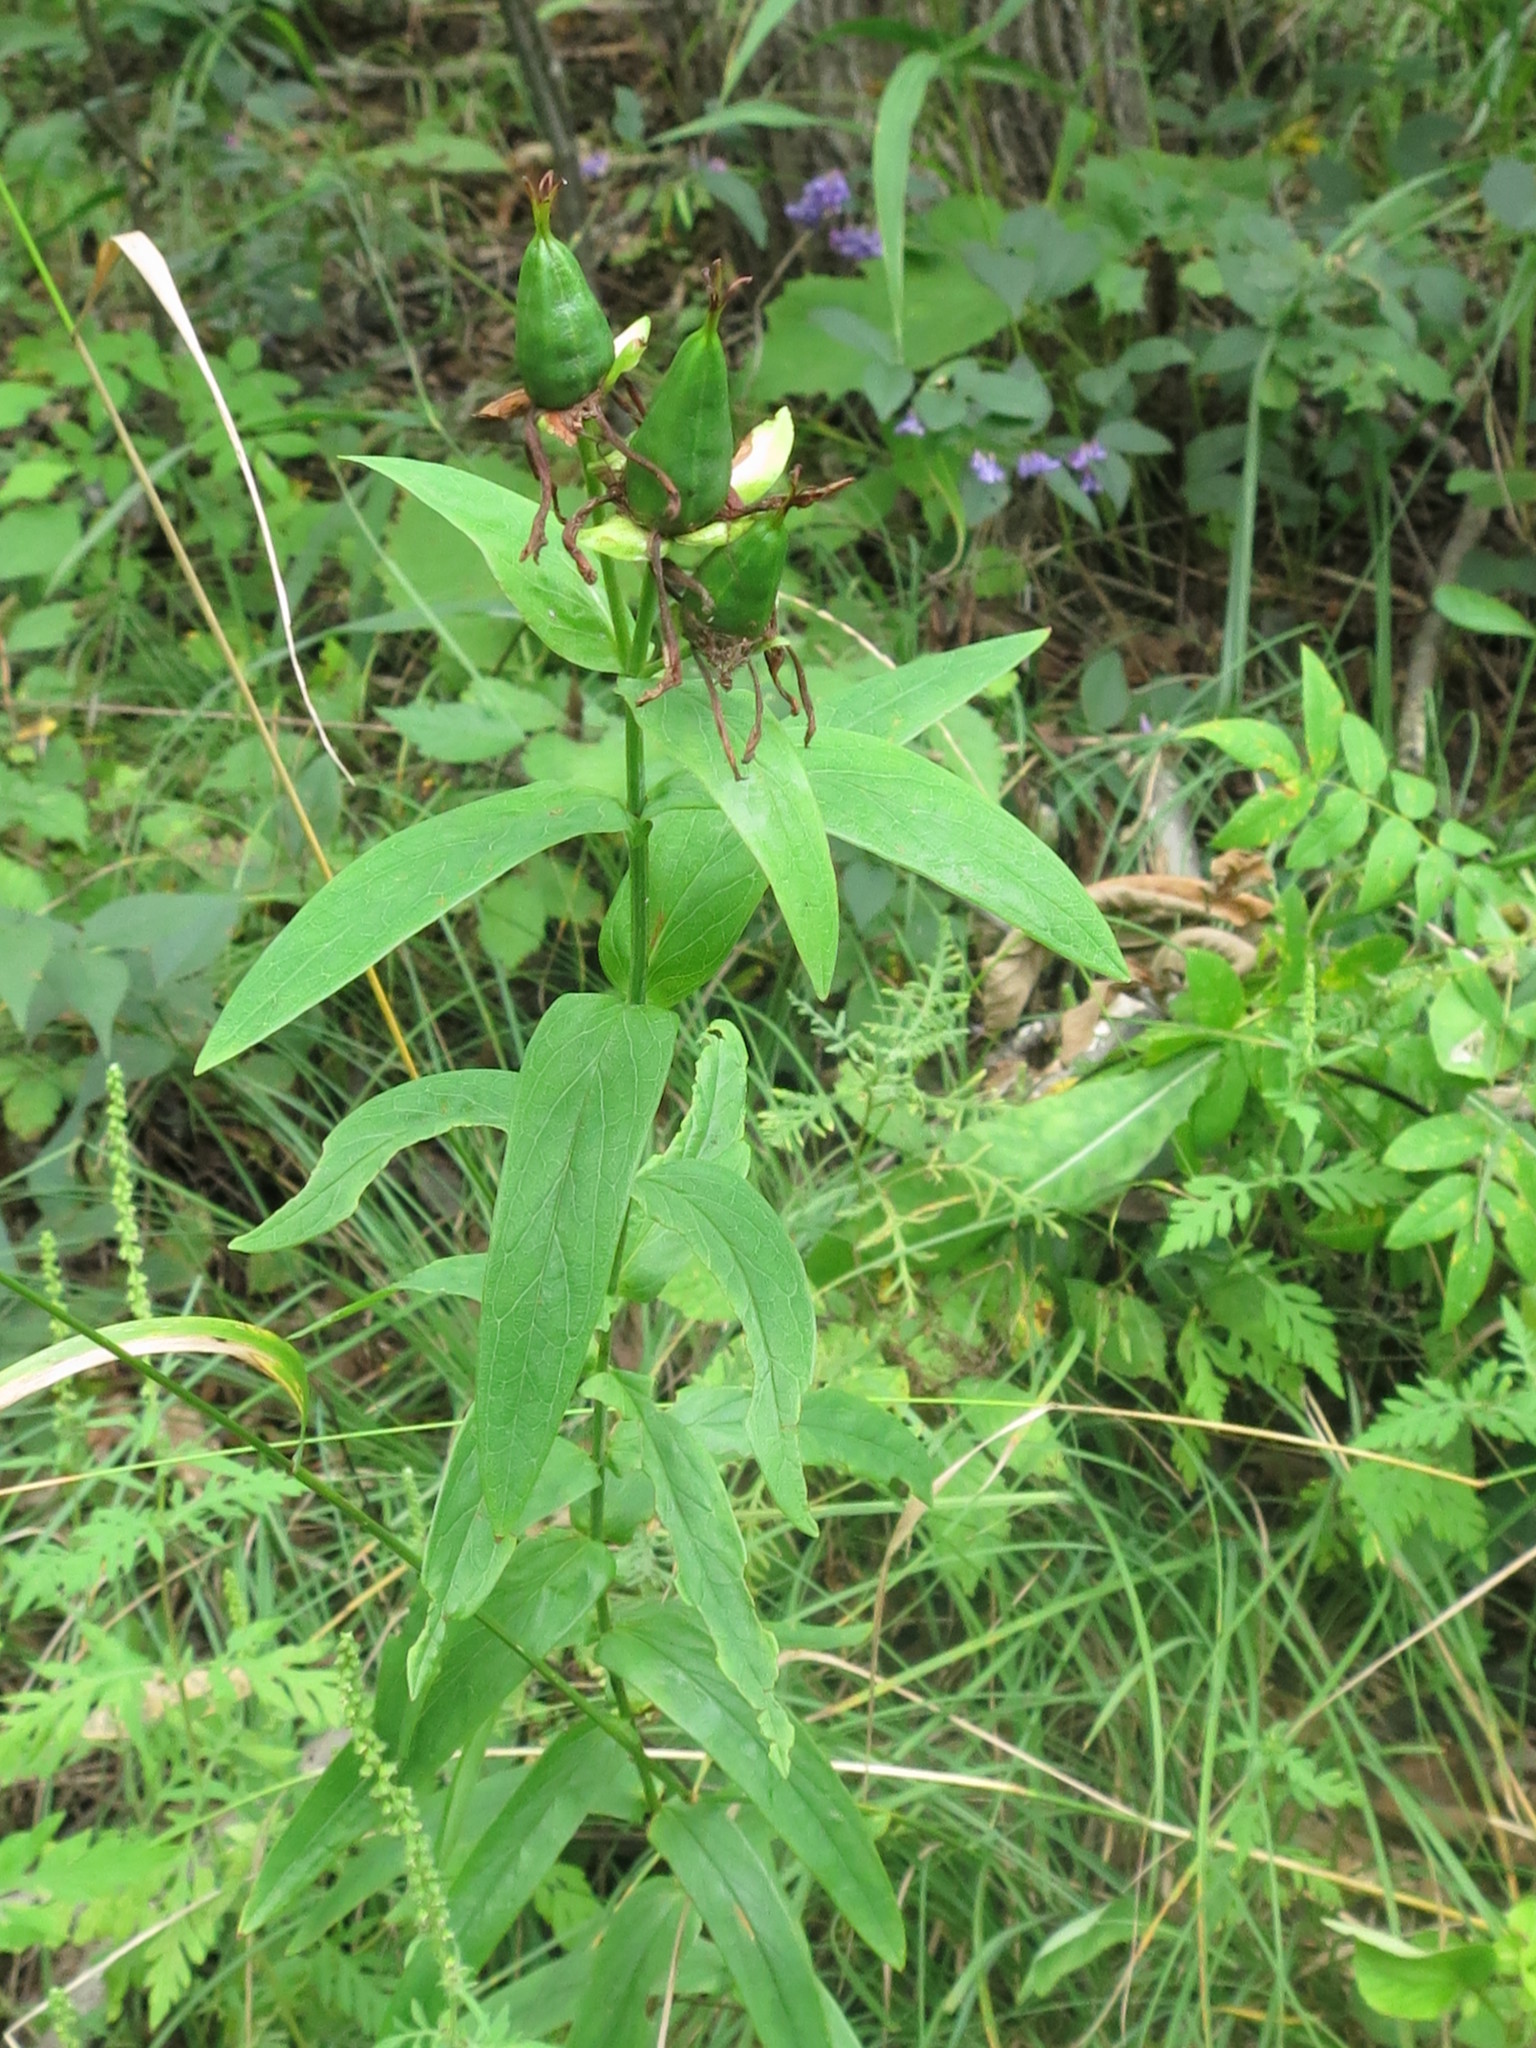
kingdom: Plantae
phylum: Tracheophyta
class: Magnoliopsida
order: Malpighiales
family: Hypericaceae
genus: Hypericum
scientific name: Hypericum ascyron
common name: Giant st. john's-wort
